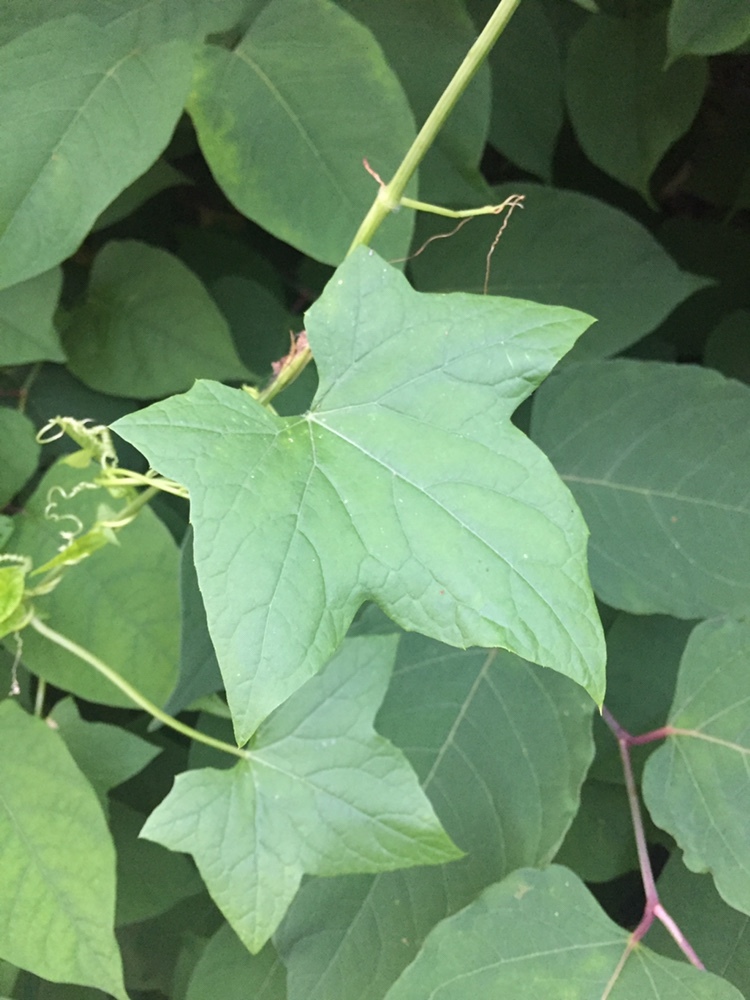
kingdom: Plantae
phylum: Tracheophyta
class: Magnoliopsida
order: Cucurbitales
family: Cucurbitaceae
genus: Echinocystis
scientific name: Echinocystis lobata
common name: Wild cucumber
